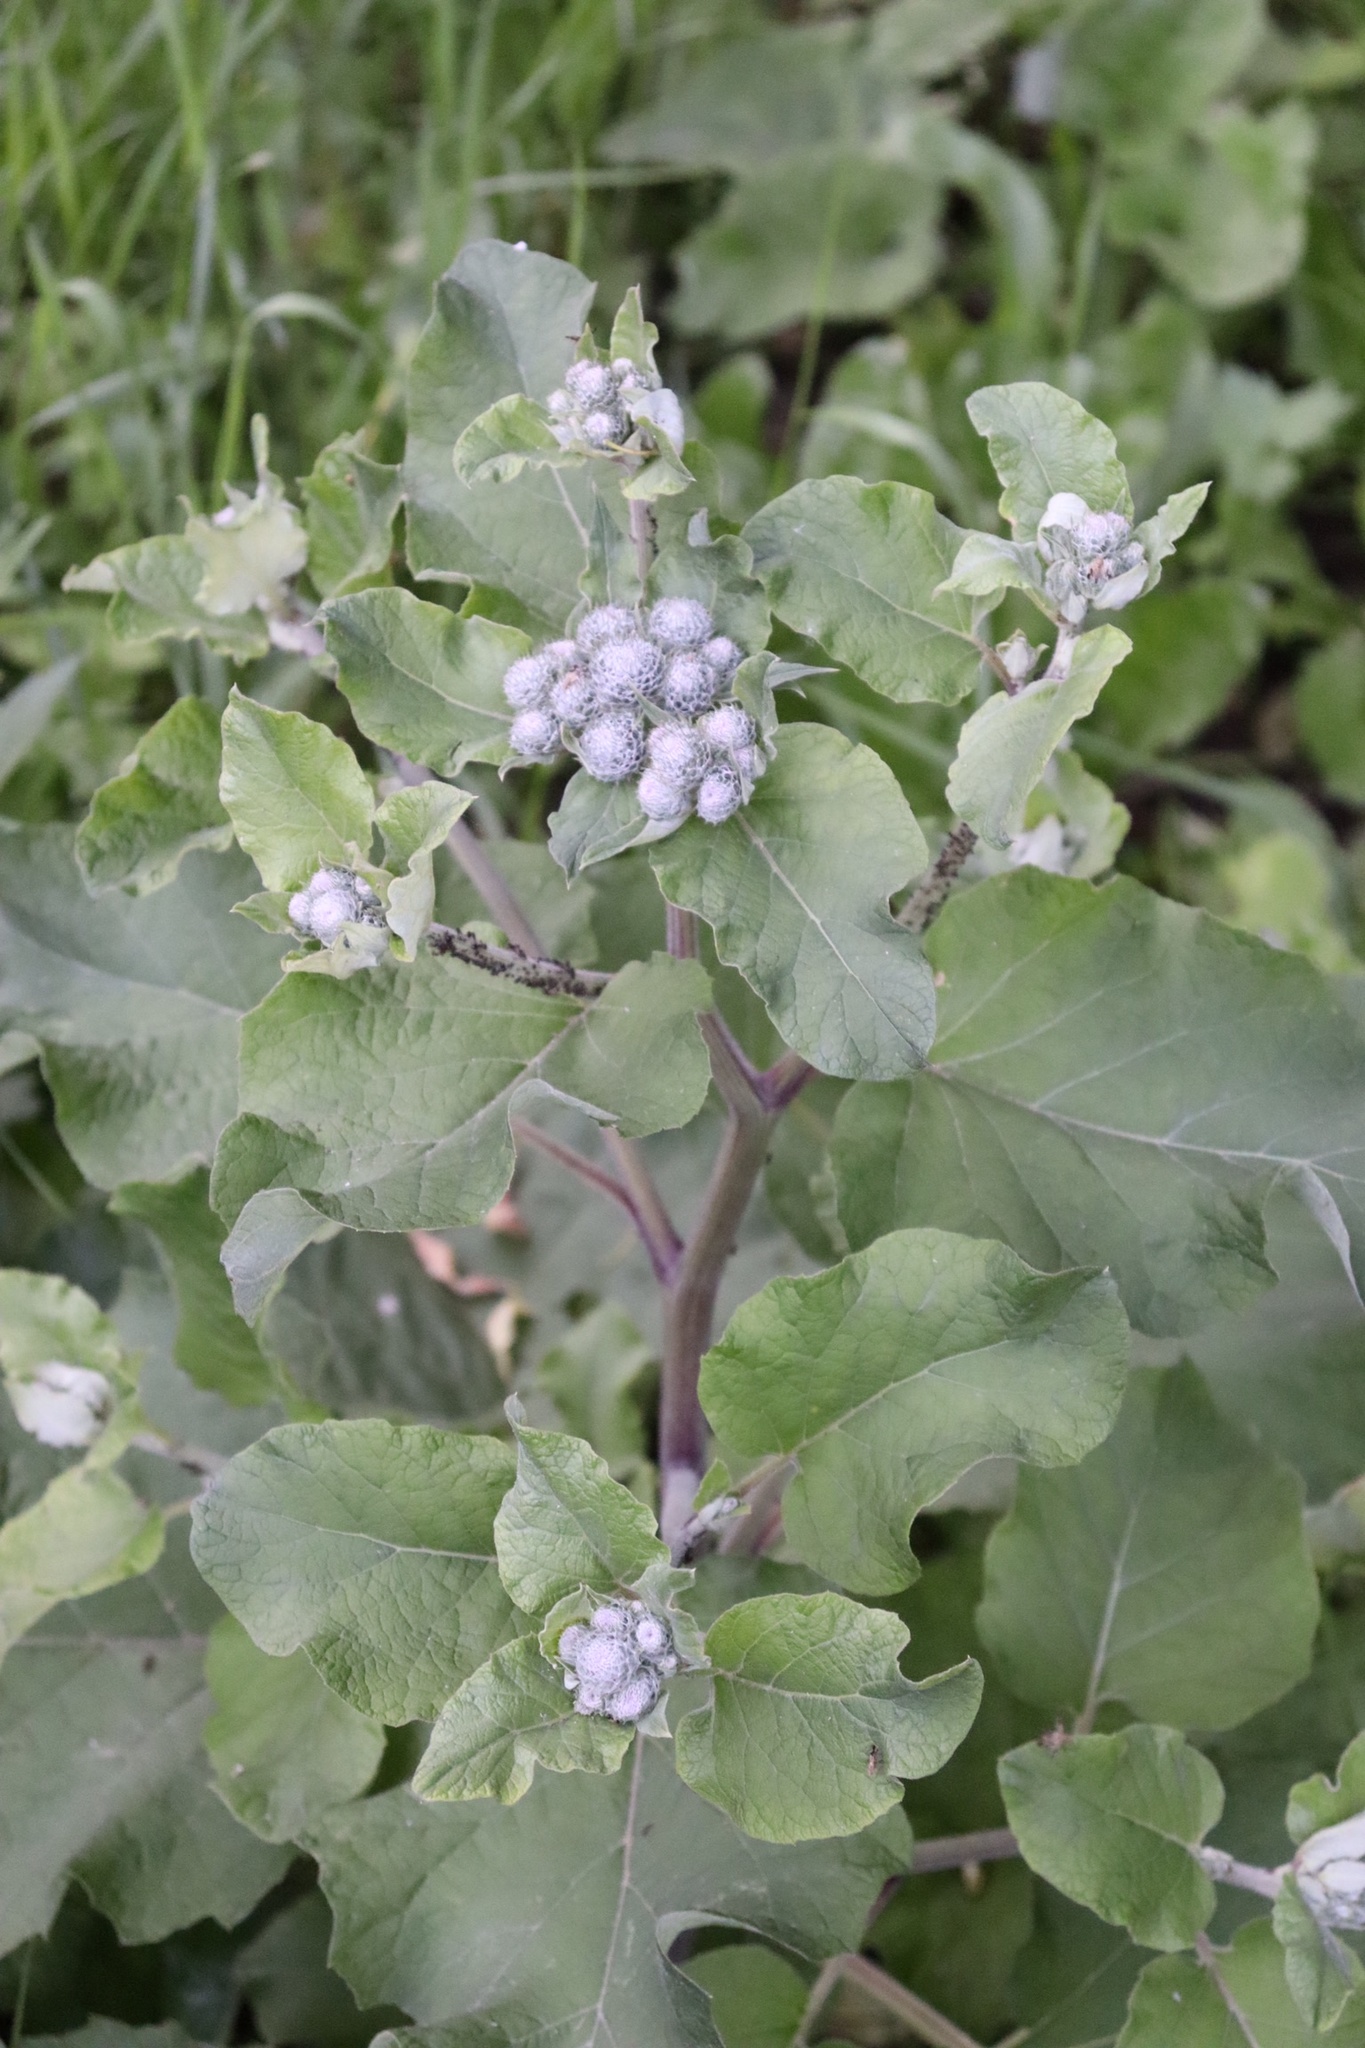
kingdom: Plantae
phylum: Tracheophyta
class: Magnoliopsida
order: Asterales
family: Asteraceae
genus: Arctium
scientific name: Arctium tomentosum
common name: Woolly burdock
